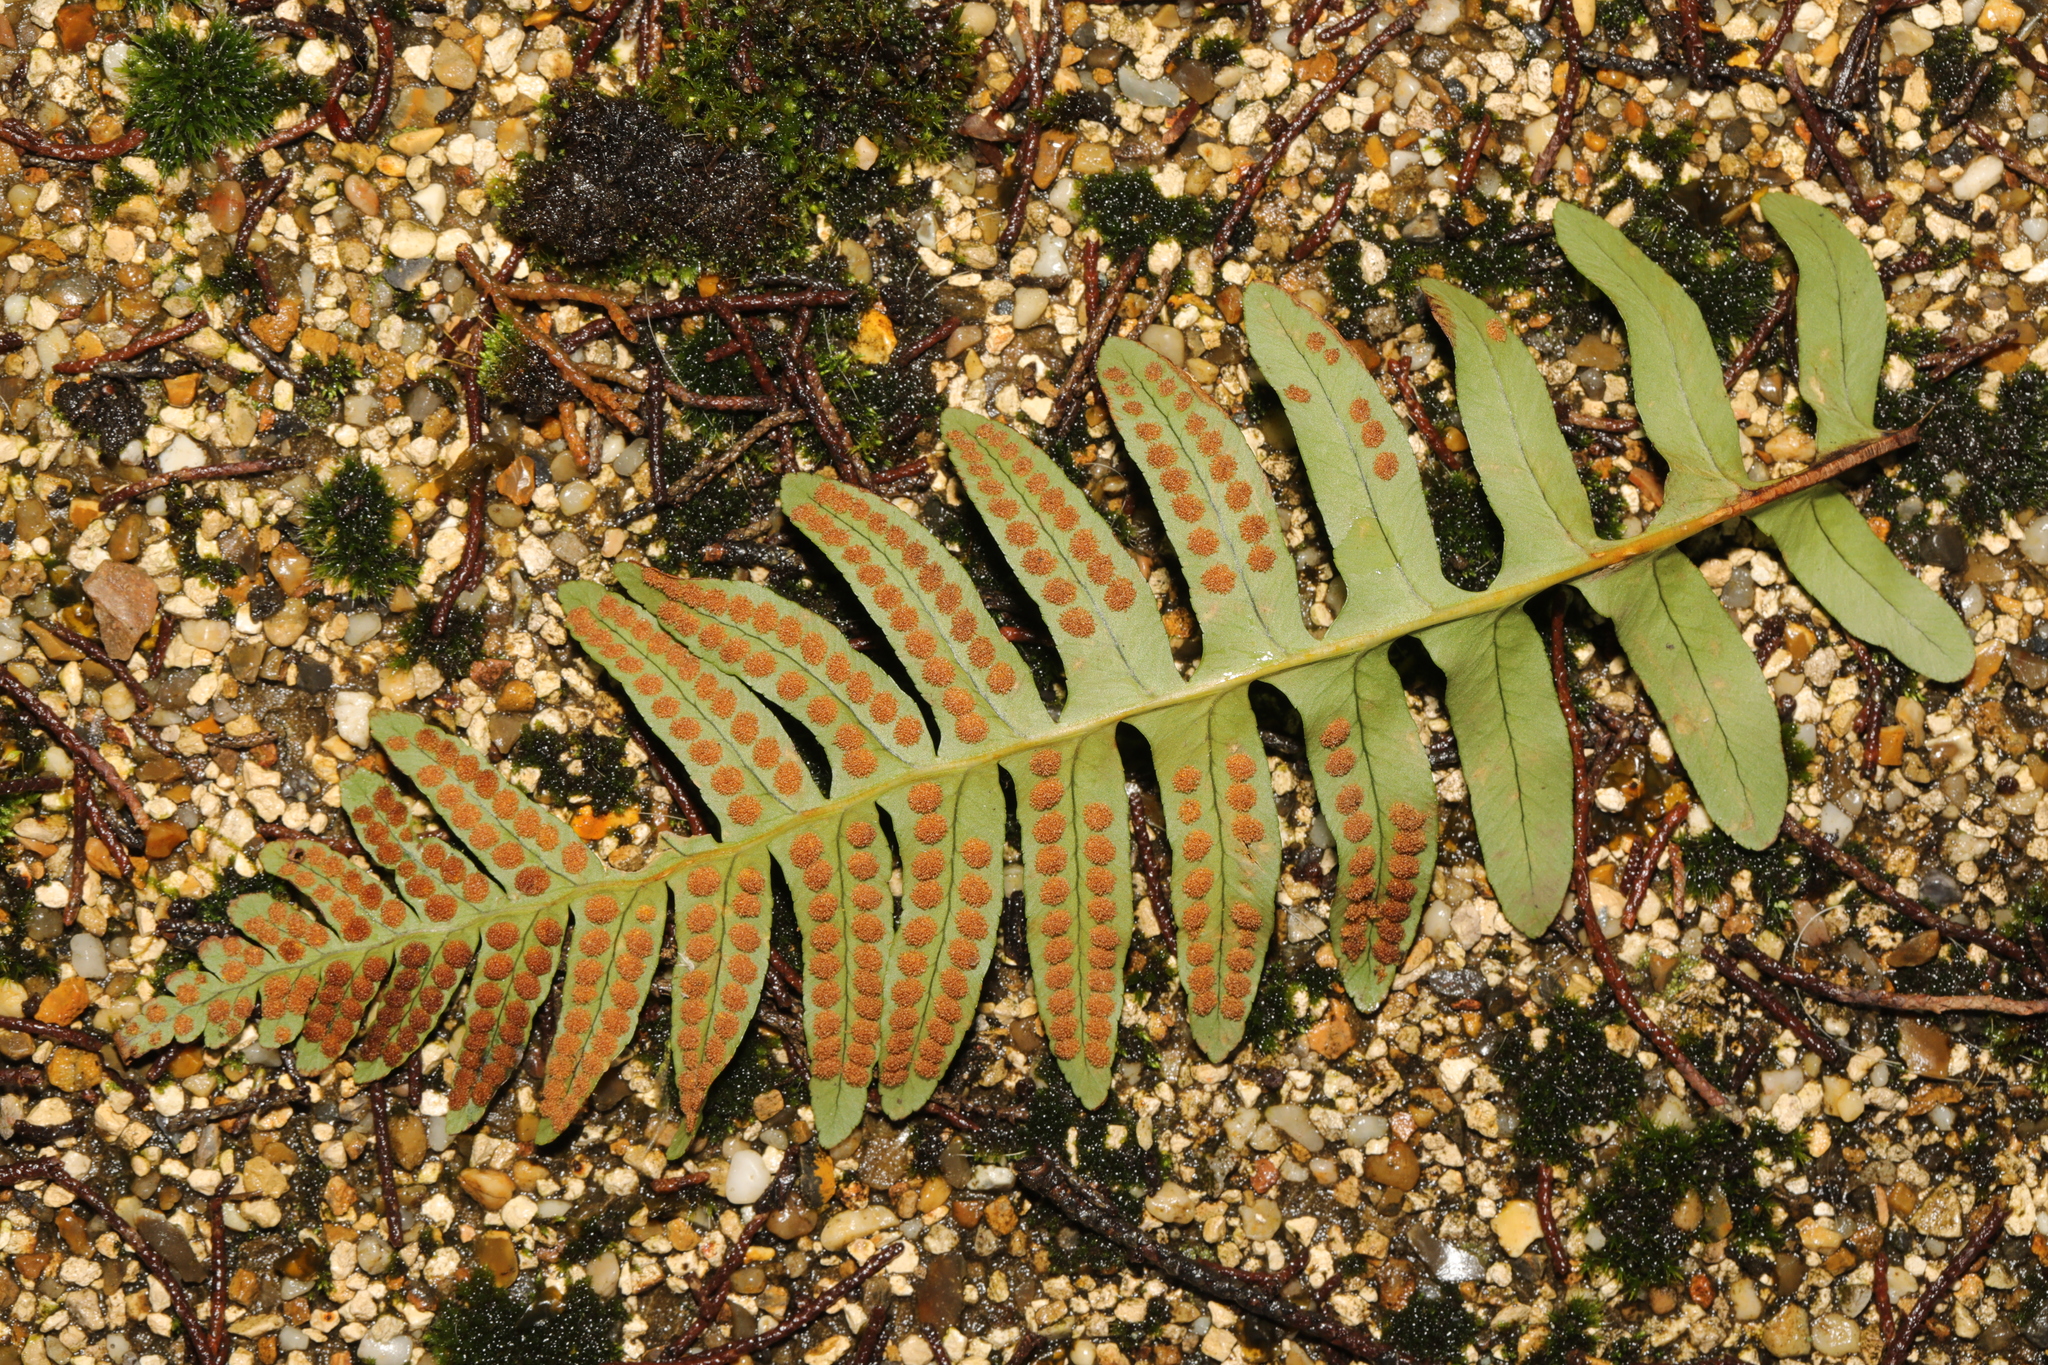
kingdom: Plantae
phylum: Tracheophyta
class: Polypodiopsida
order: Polypodiales
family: Polypodiaceae
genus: Polypodium
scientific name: Polypodium vulgare
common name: Common polypody
